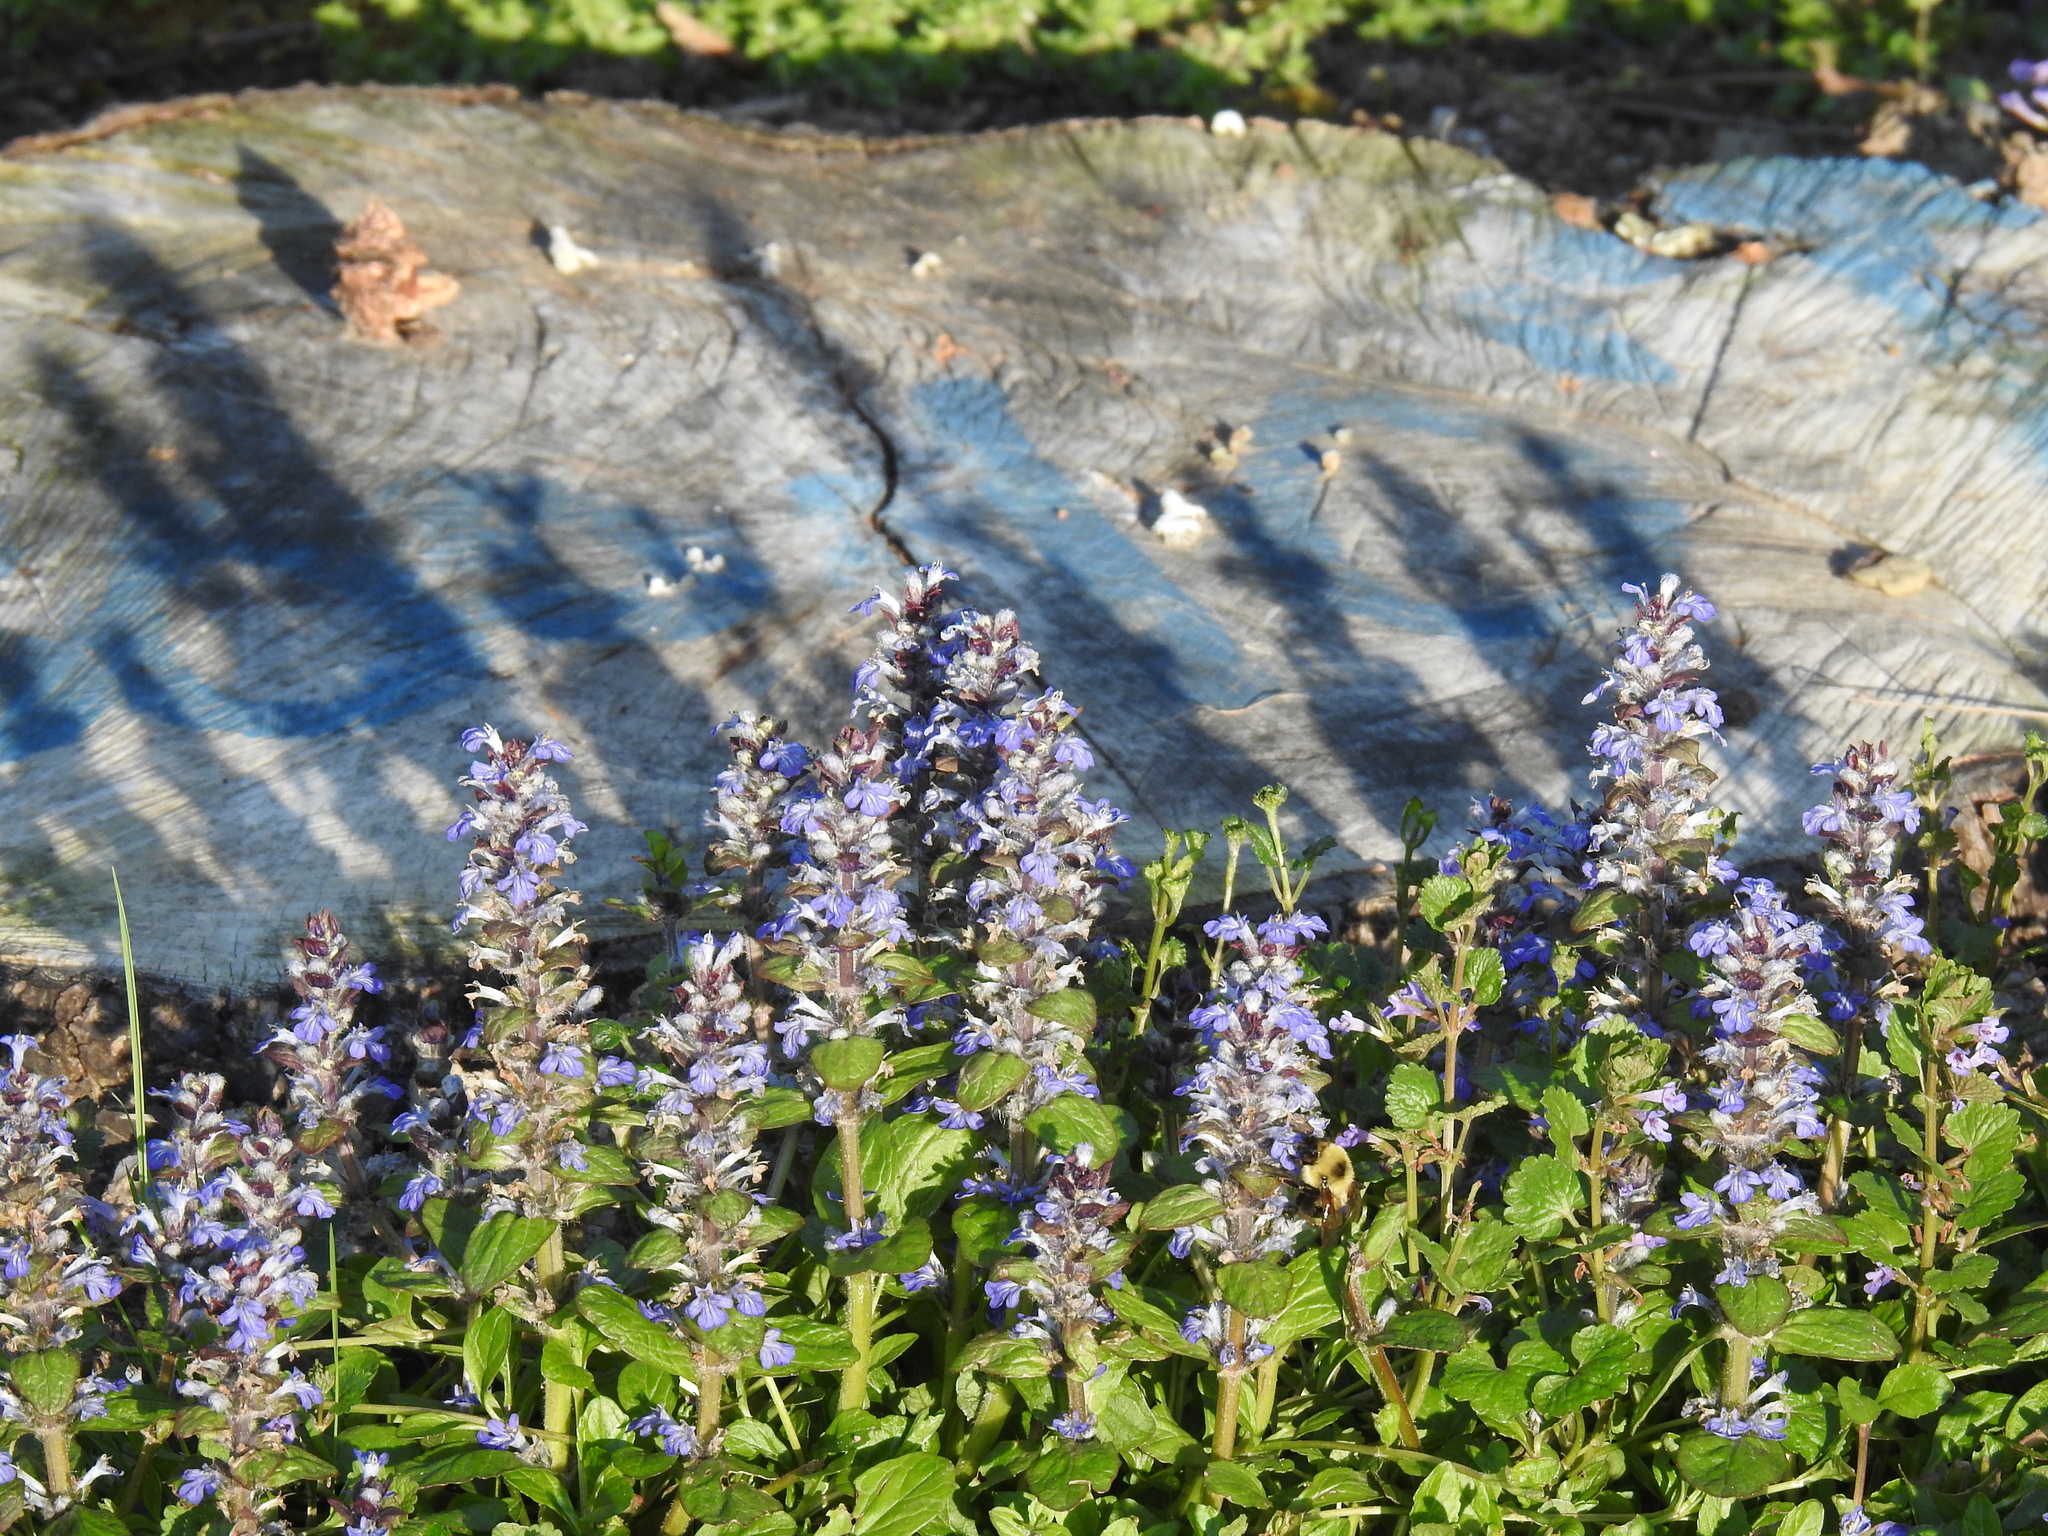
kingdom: Plantae
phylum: Tracheophyta
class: Magnoliopsida
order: Lamiales
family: Lamiaceae
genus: Ajuga
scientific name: Ajuga reptans
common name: Bugle
